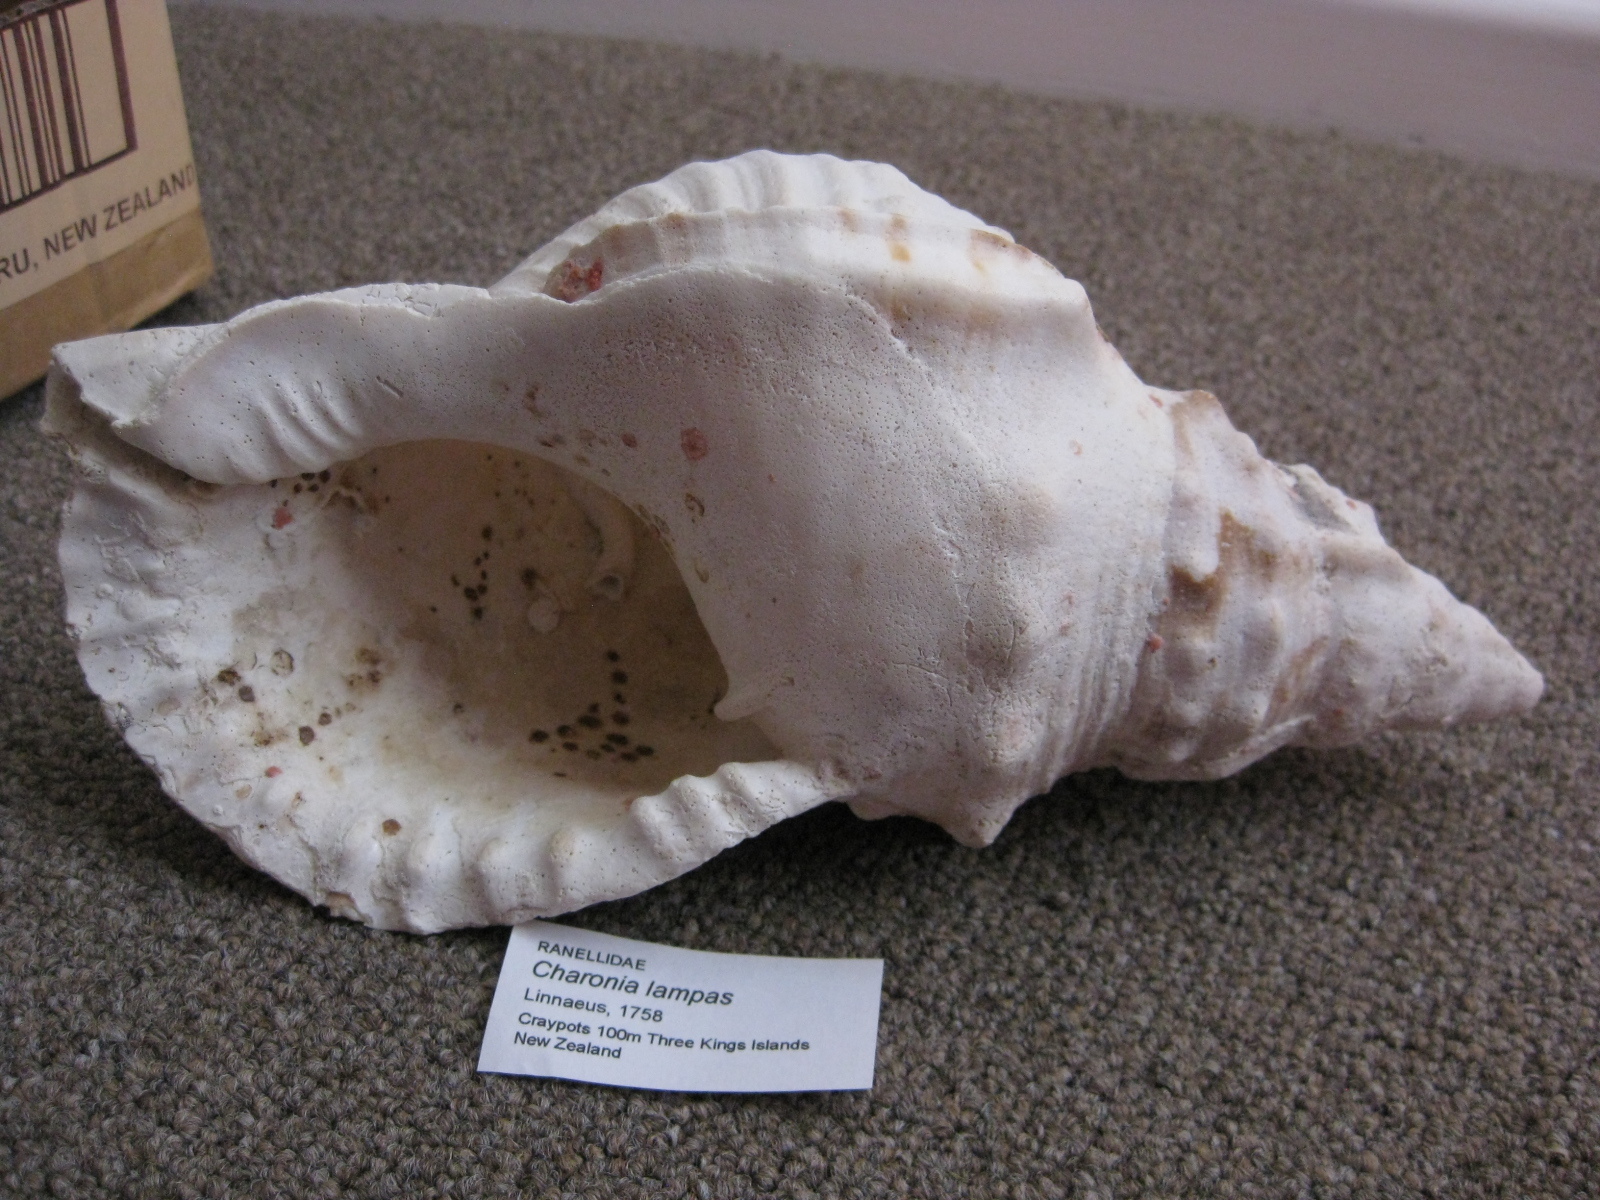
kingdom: Animalia
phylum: Mollusca
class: Gastropoda
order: Littorinimorpha
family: Charoniidae
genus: Charonia
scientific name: Charonia lampas
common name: Knobbed triton
